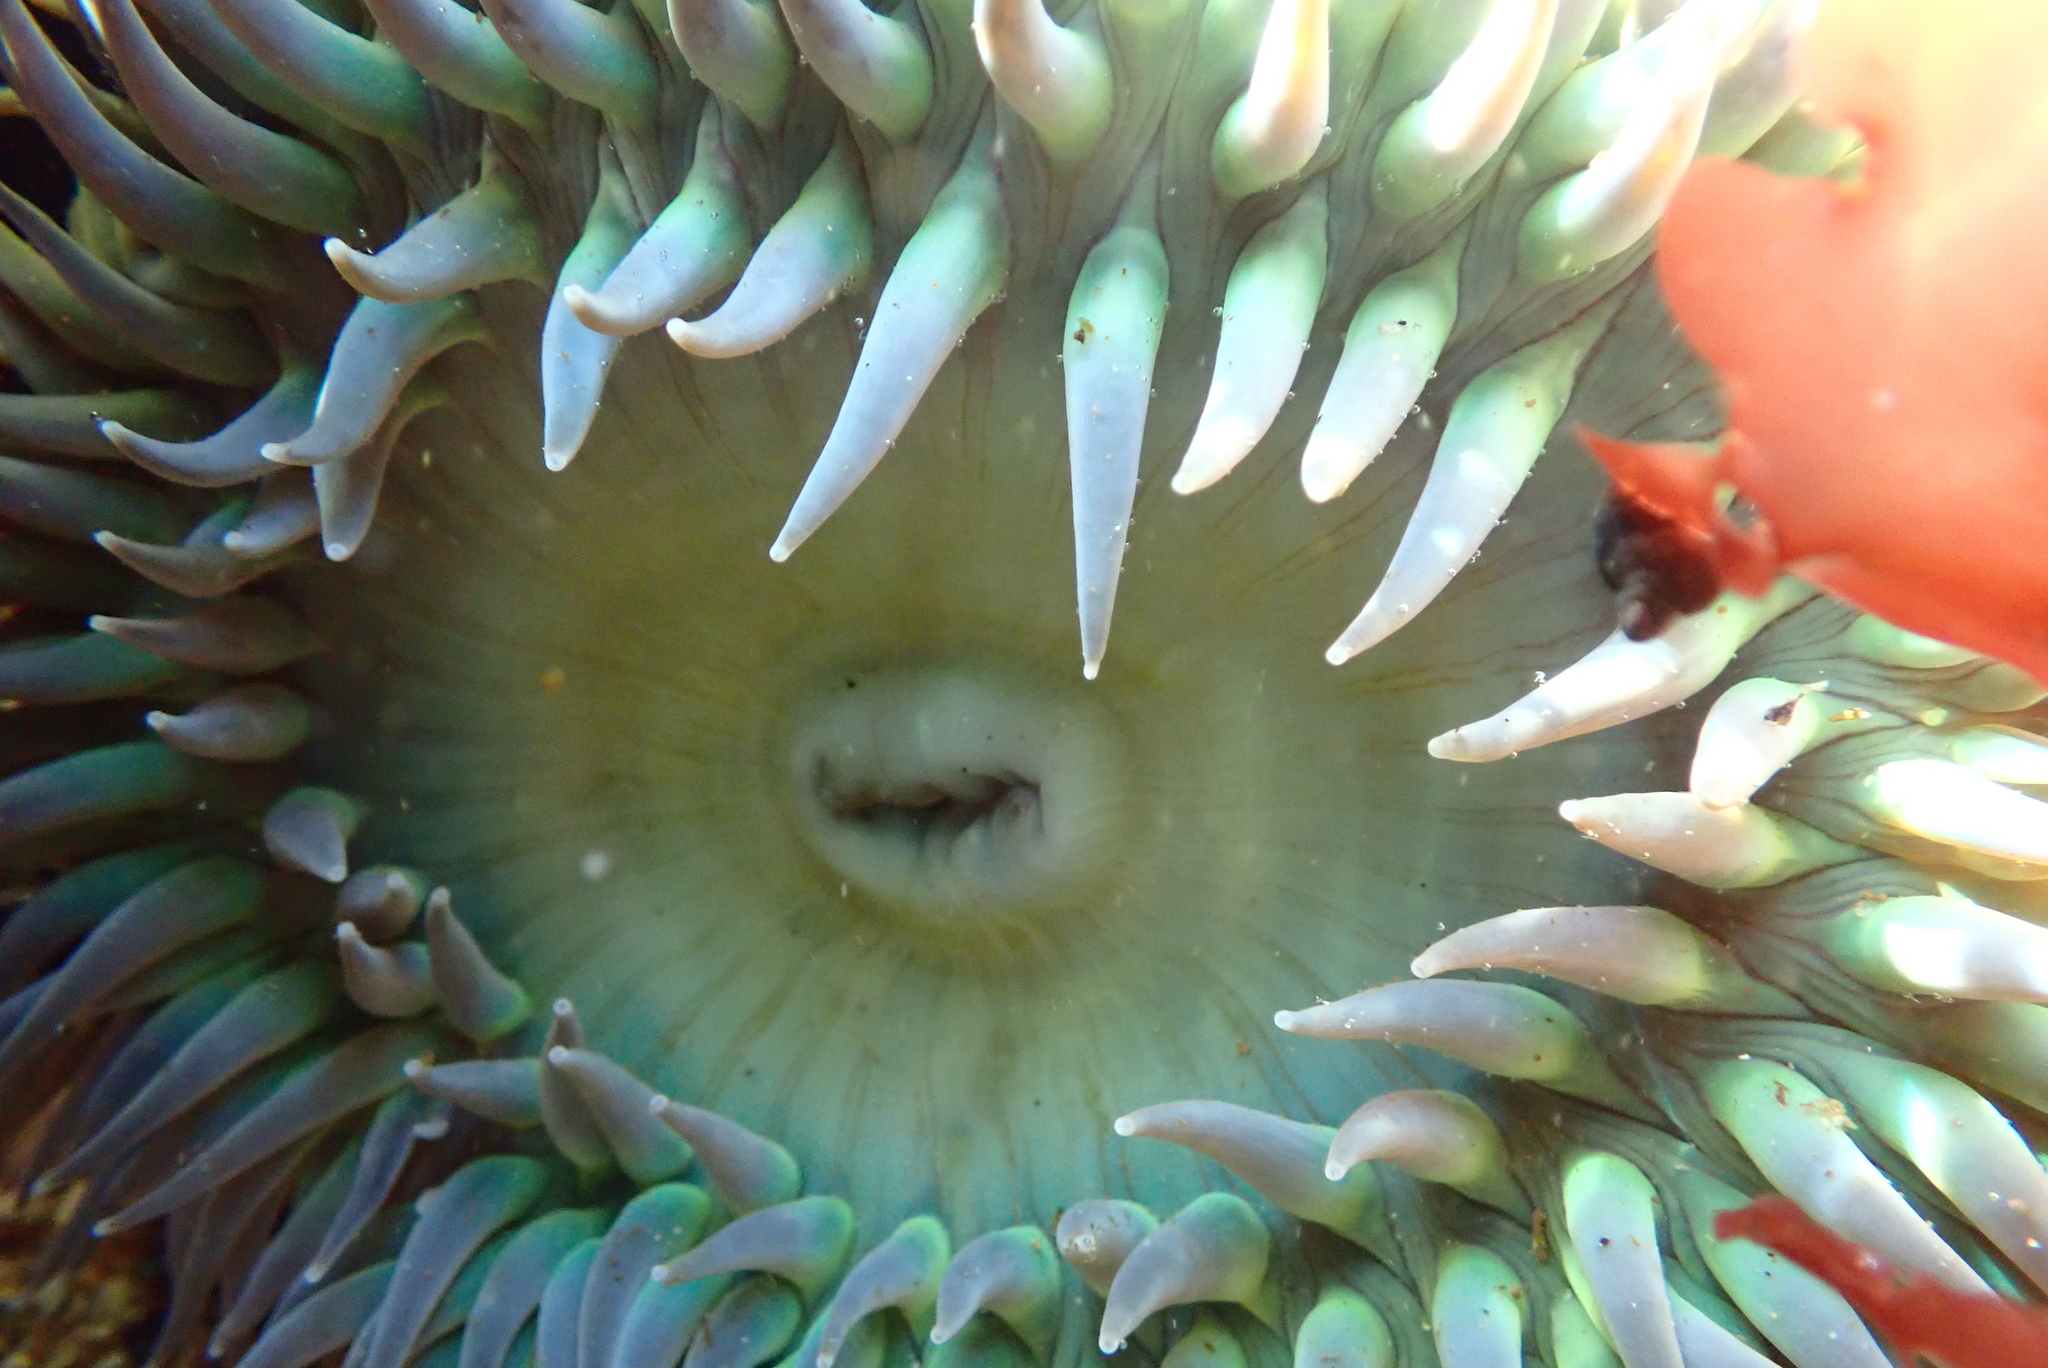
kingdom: Animalia
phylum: Cnidaria
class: Anthozoa
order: Actiniaria
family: Actiniidae
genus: Anthopleura
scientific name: Anthopleura xanthogrammica
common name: Giant green anemone
